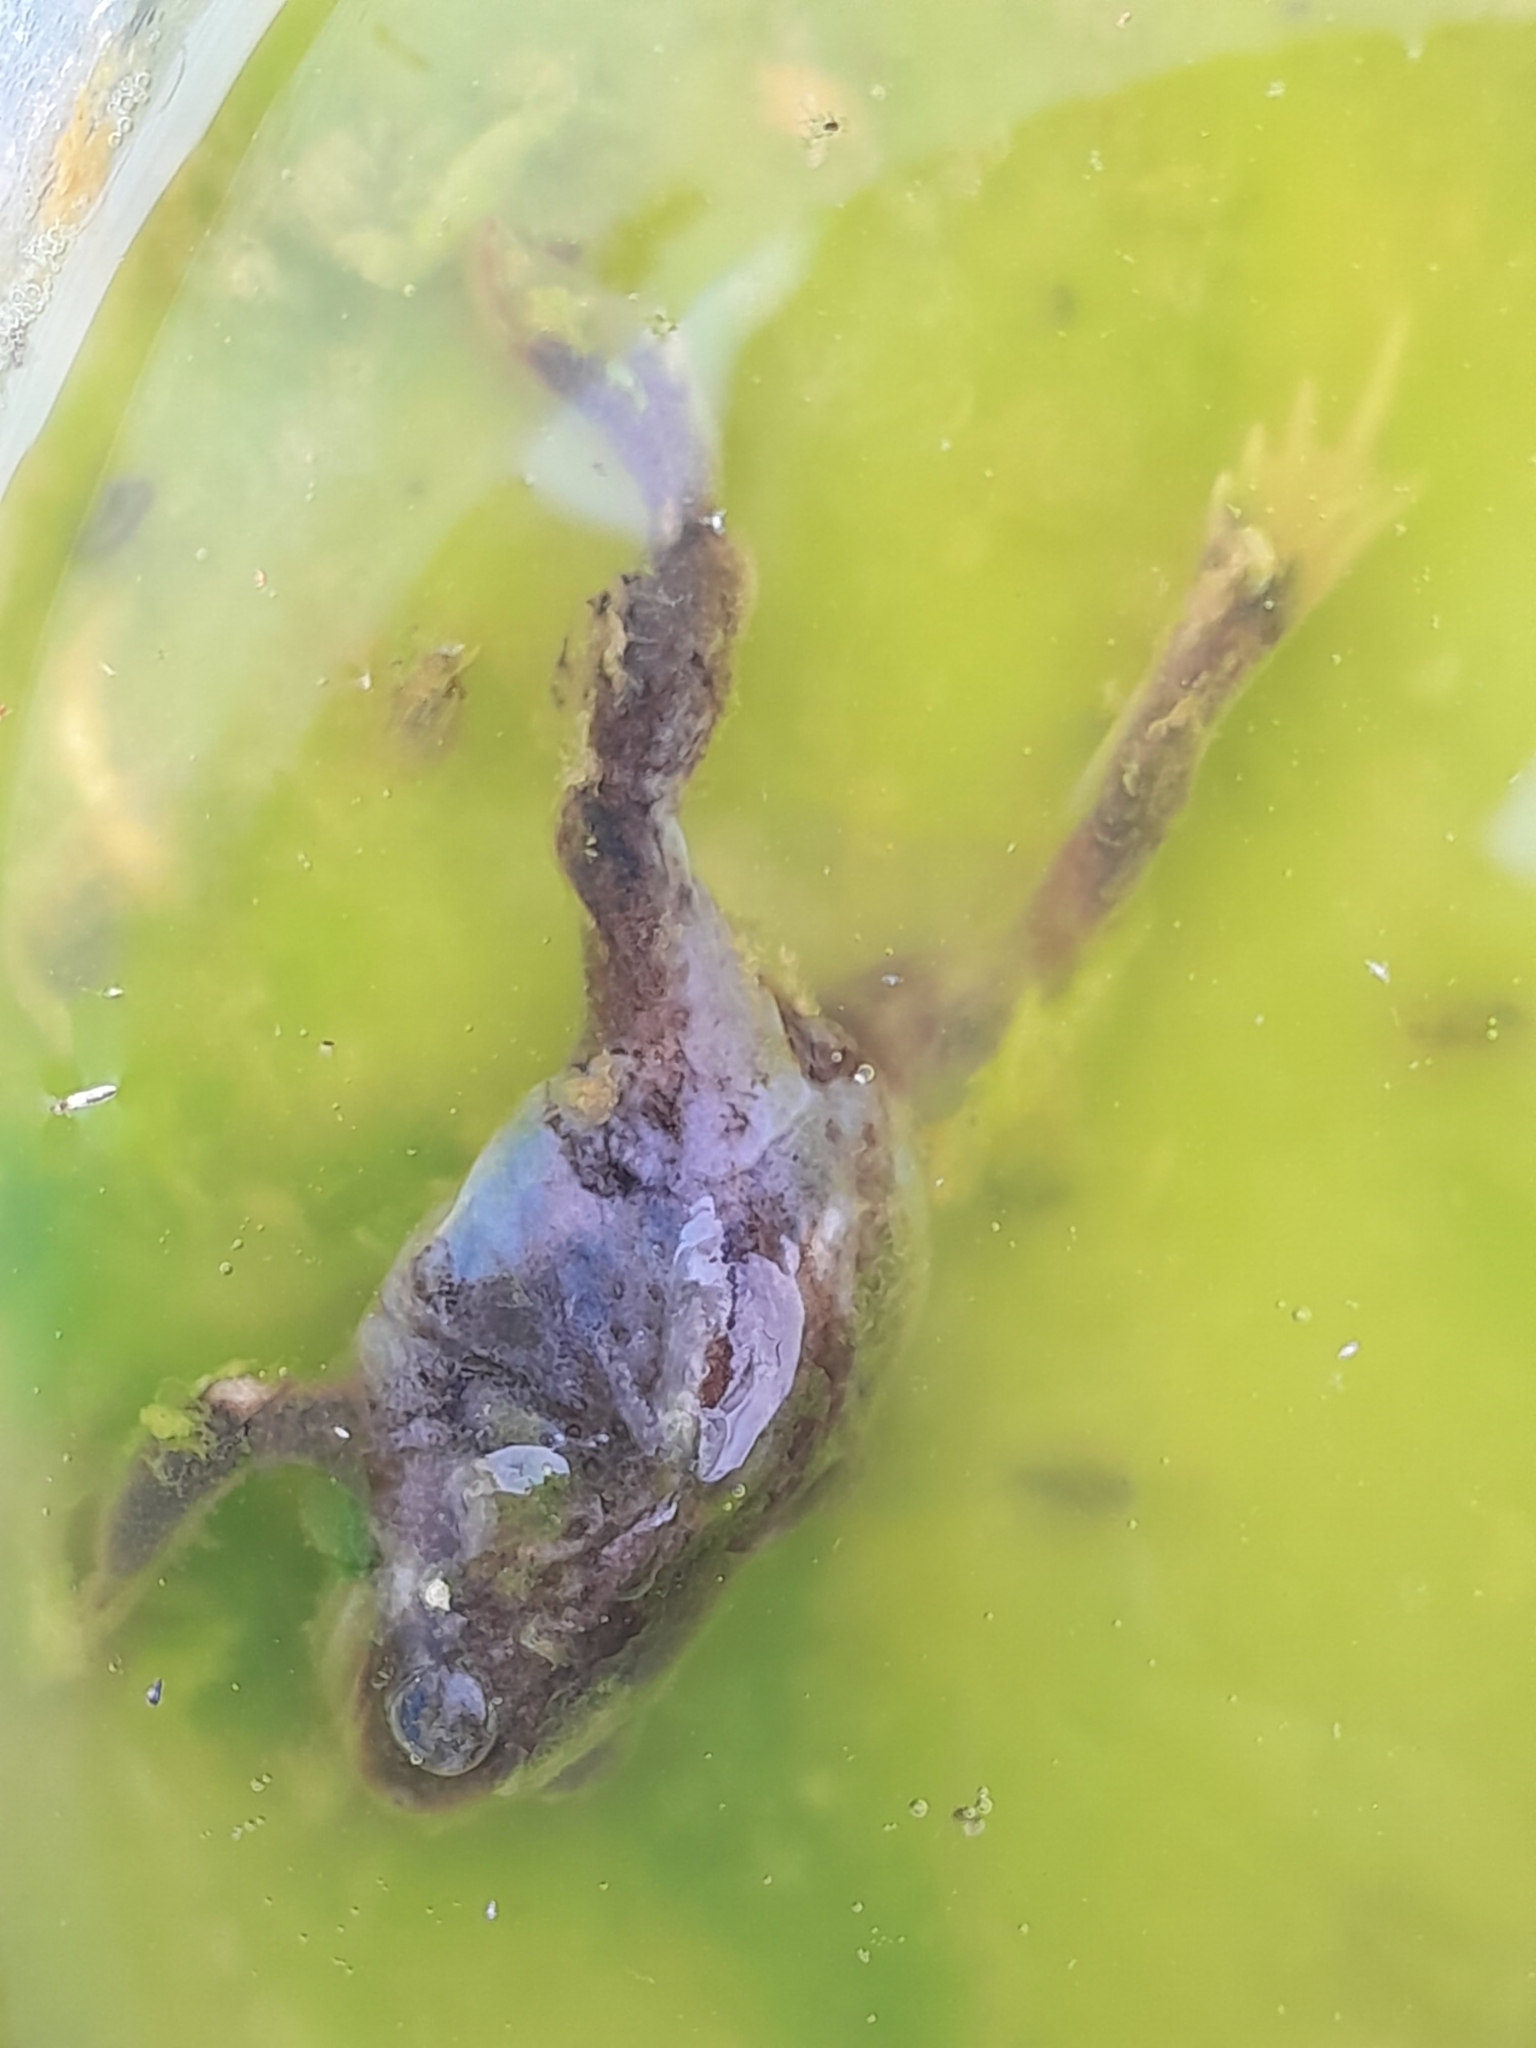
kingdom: Animalia
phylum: Chordata
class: Amphibia
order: Anura
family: Pelobatidae
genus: Pelobates
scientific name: Pelobates fuscus
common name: Common eurasian spadefoot toad
